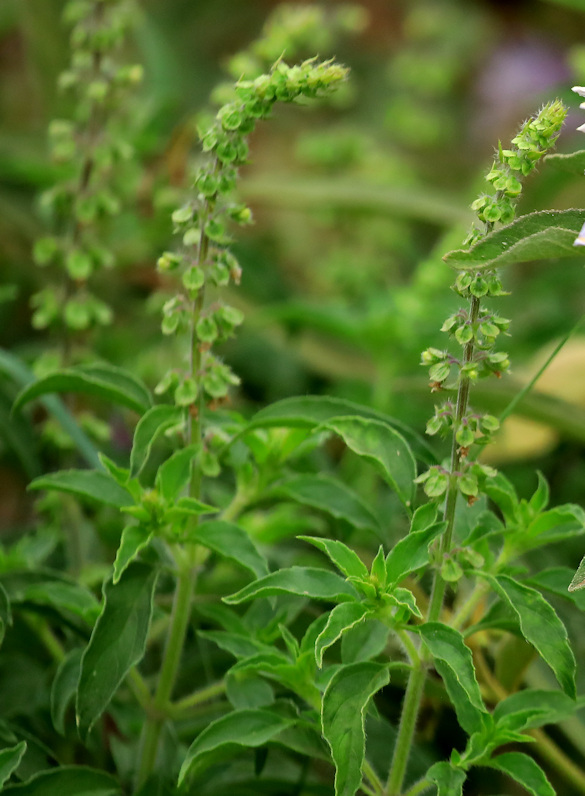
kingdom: Plantae
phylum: Tracheophyta
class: Magnoliopsida
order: Lamiales
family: Lamiaceae
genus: Ocimum
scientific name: Ocimum americanum
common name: American basil
